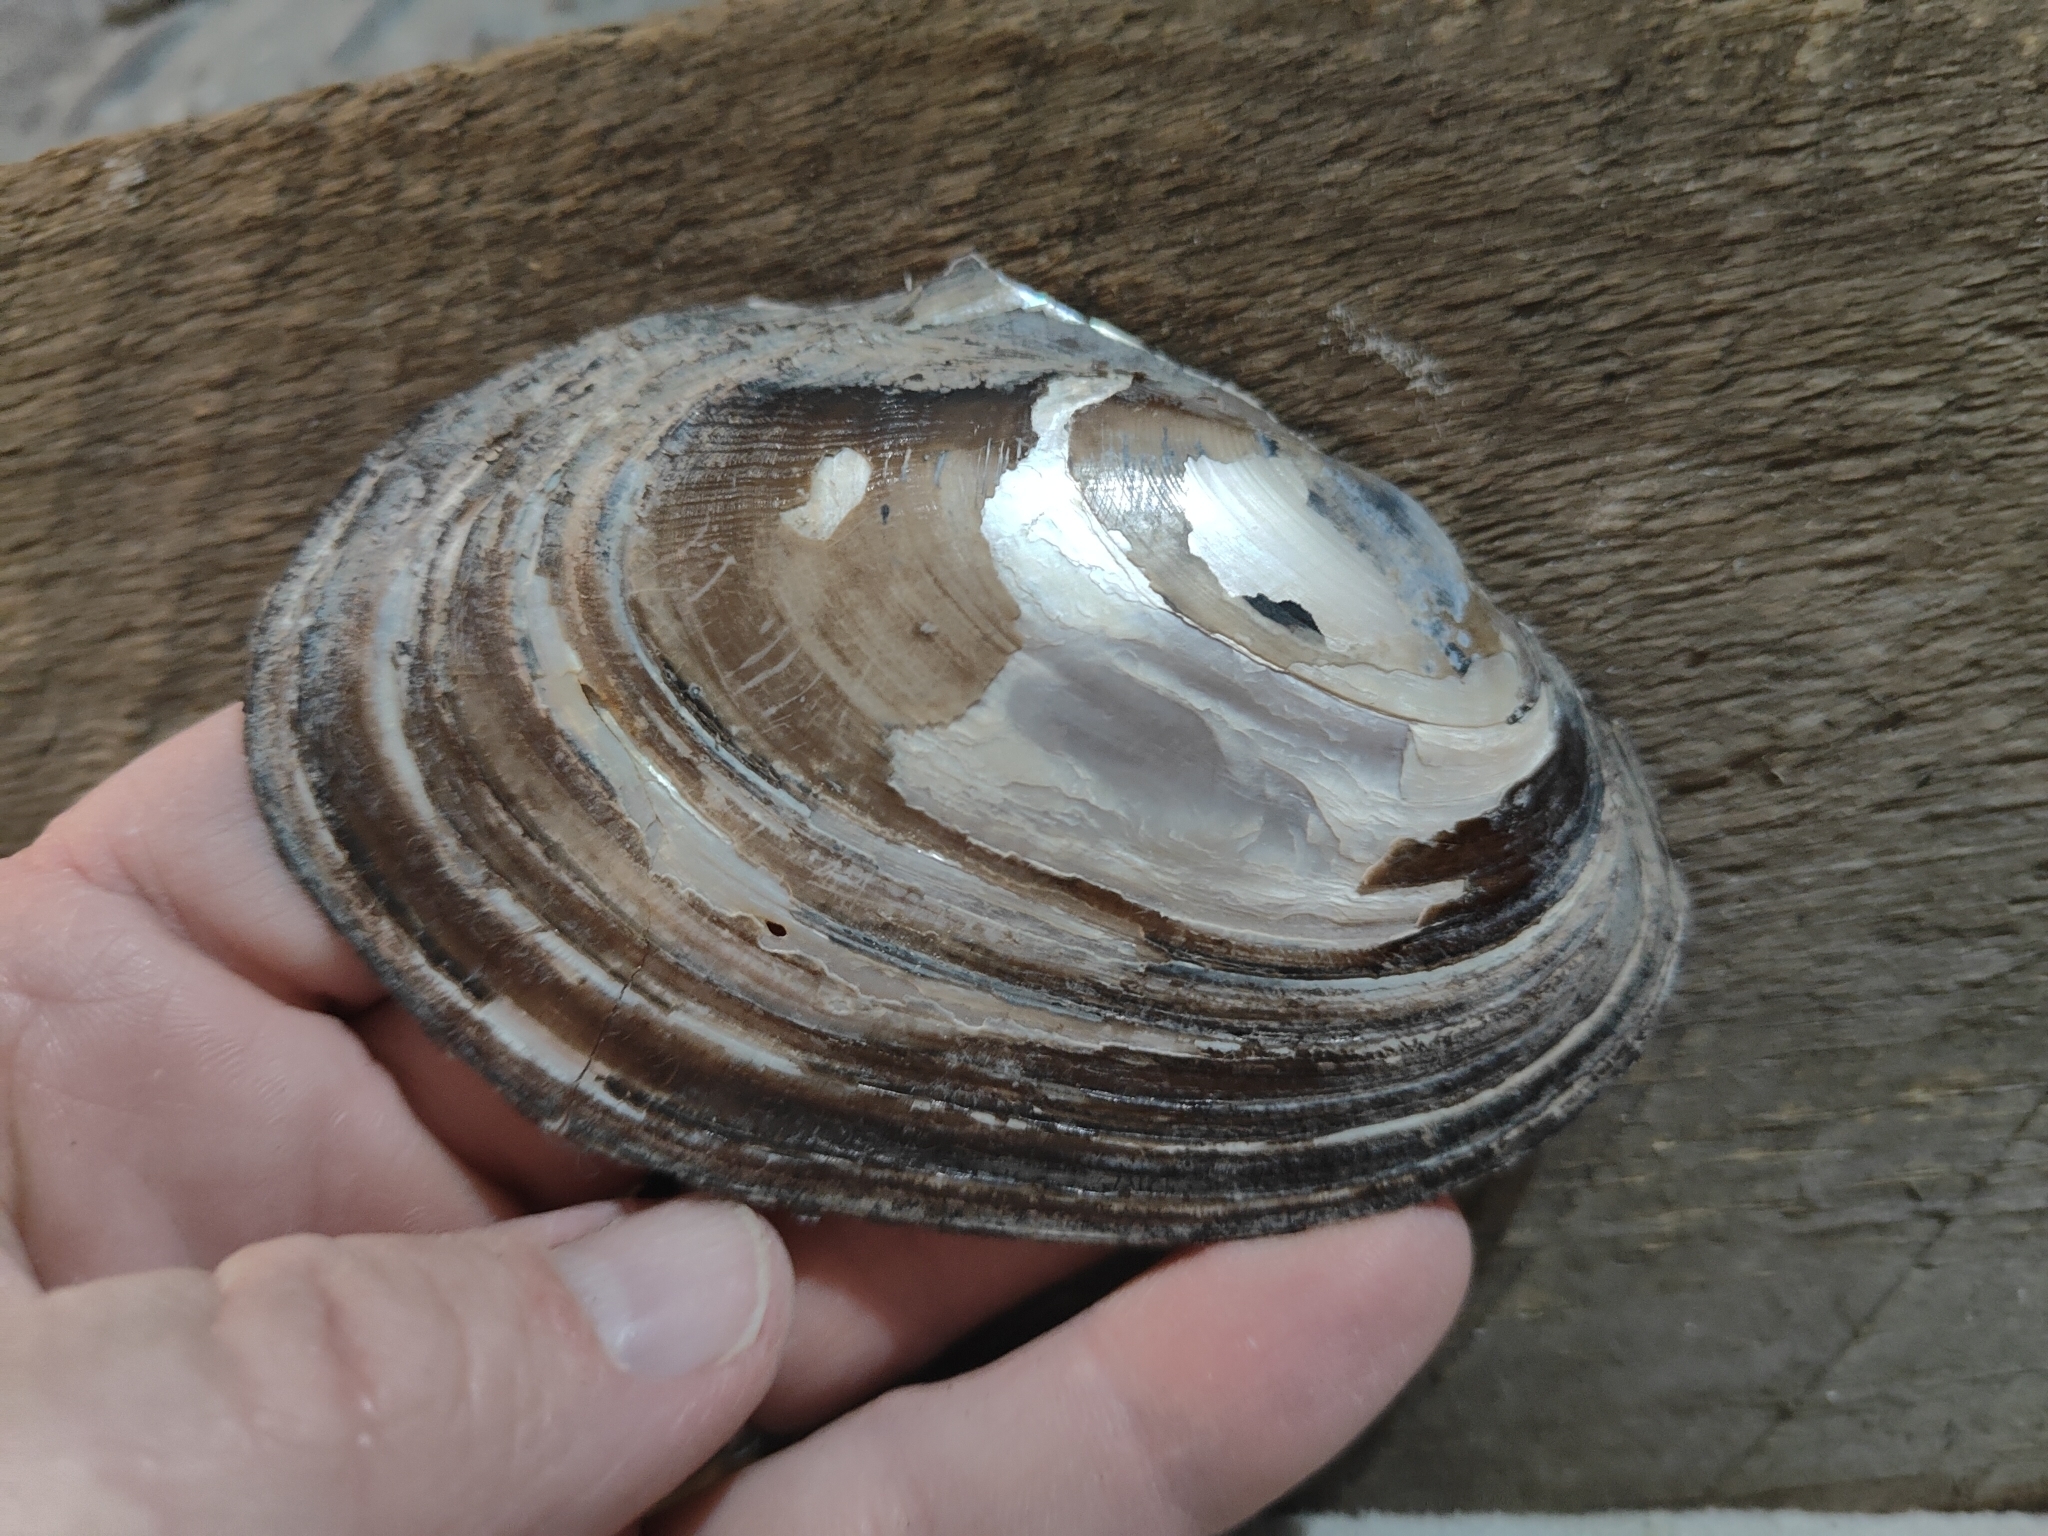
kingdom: Animalia
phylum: Mollusca
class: Bivalvia
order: Unionida
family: Unionidae
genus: Potamilus
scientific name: Potamilus ohiensis
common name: Pink papershell
